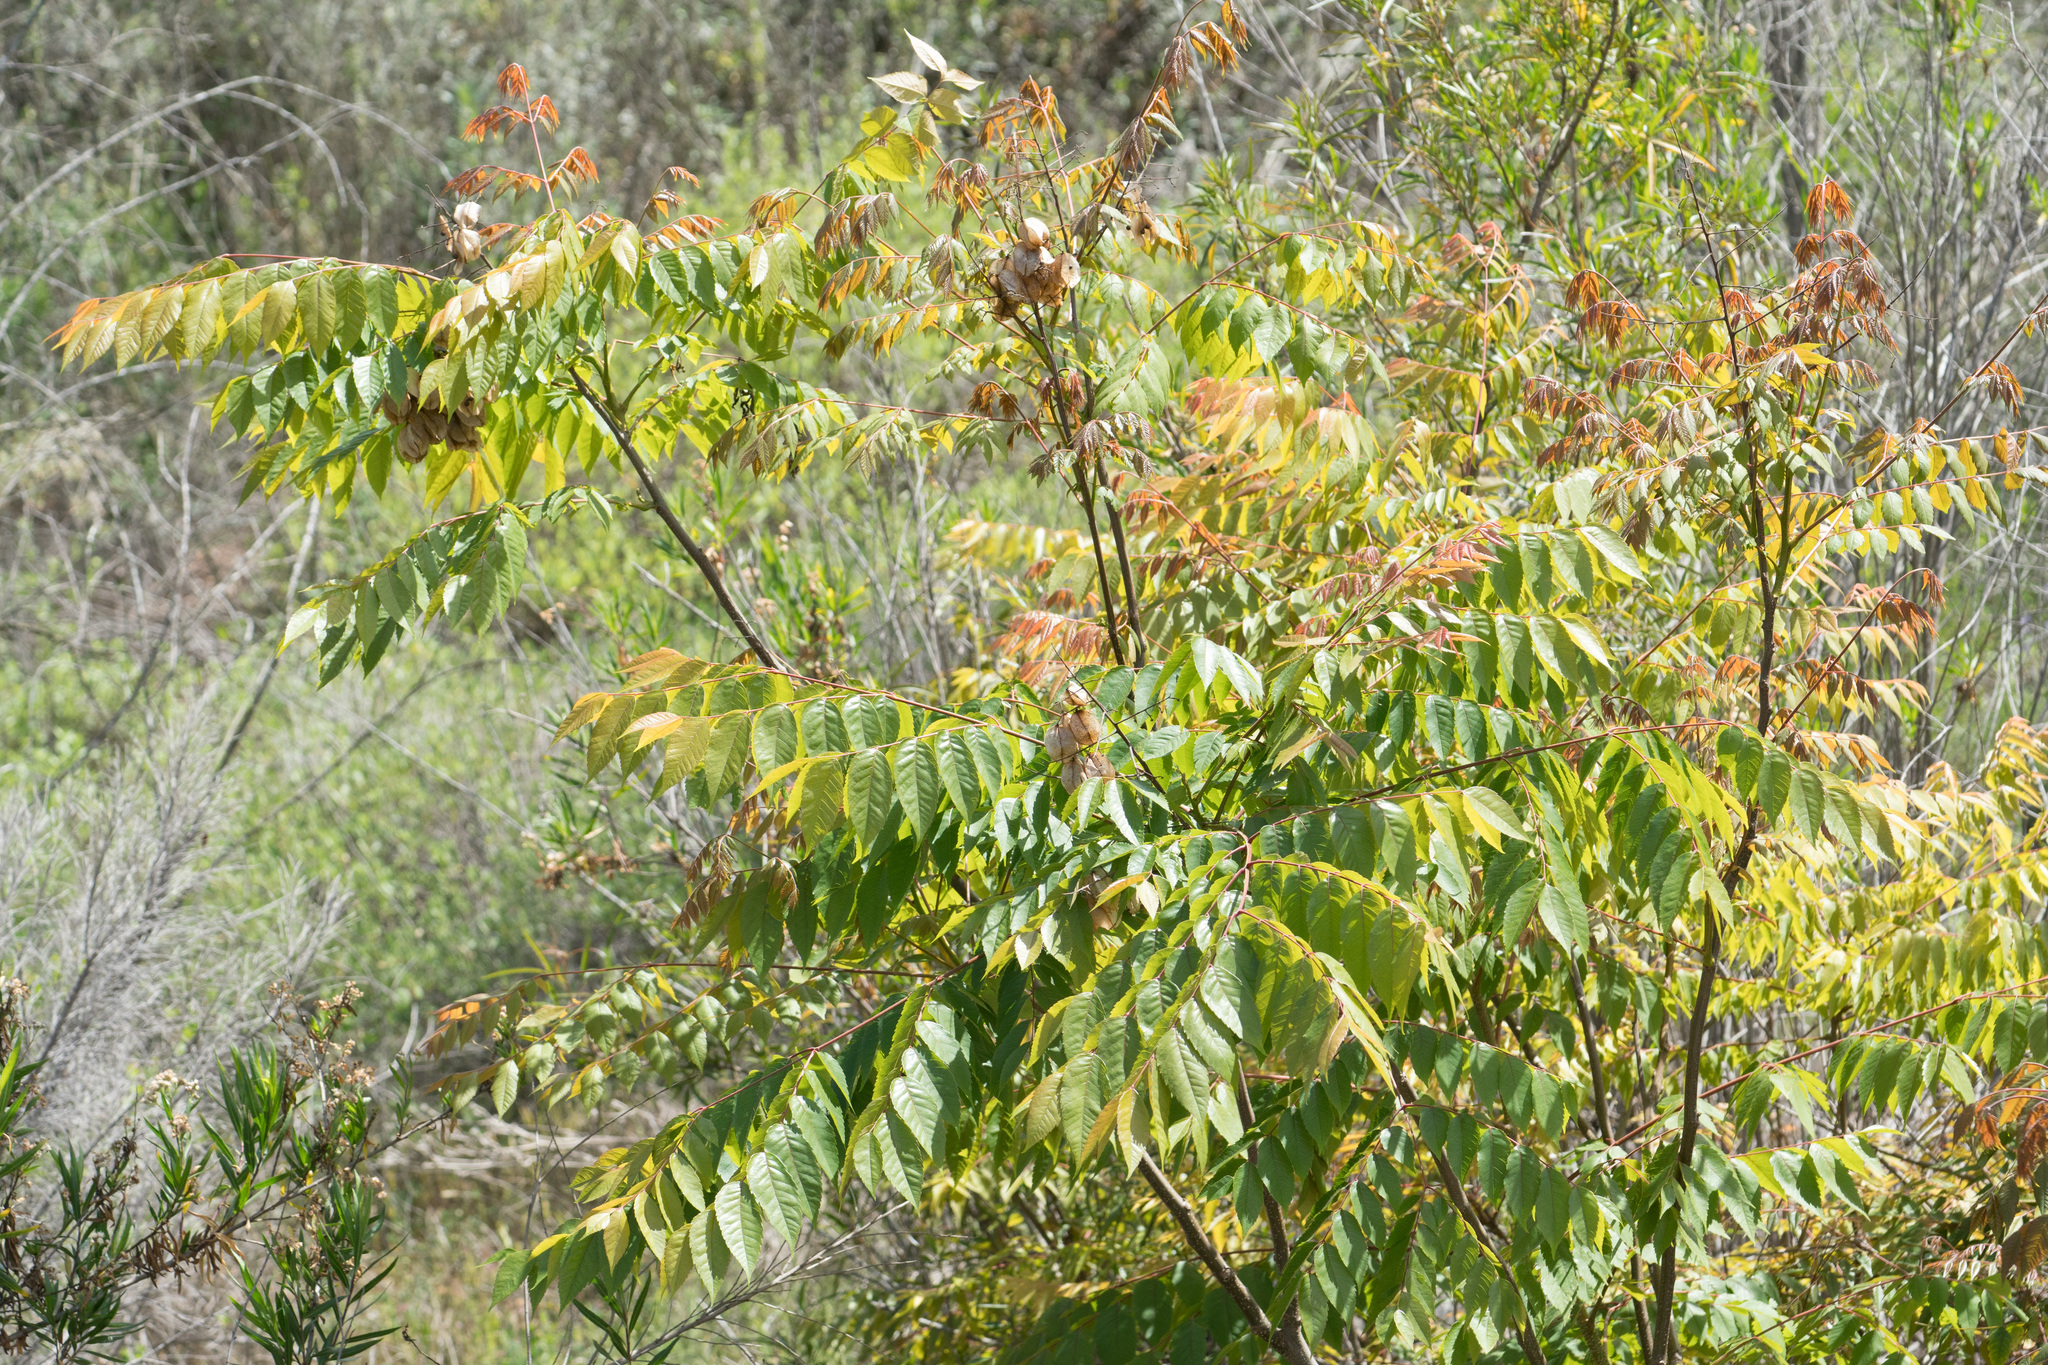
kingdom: Plantae
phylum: Tracheophyta
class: Magnoliopsida
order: Sapindales
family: Simaroubaceae
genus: Ailanthus
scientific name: Ailanthus altissima
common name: Tree-of-heaven
